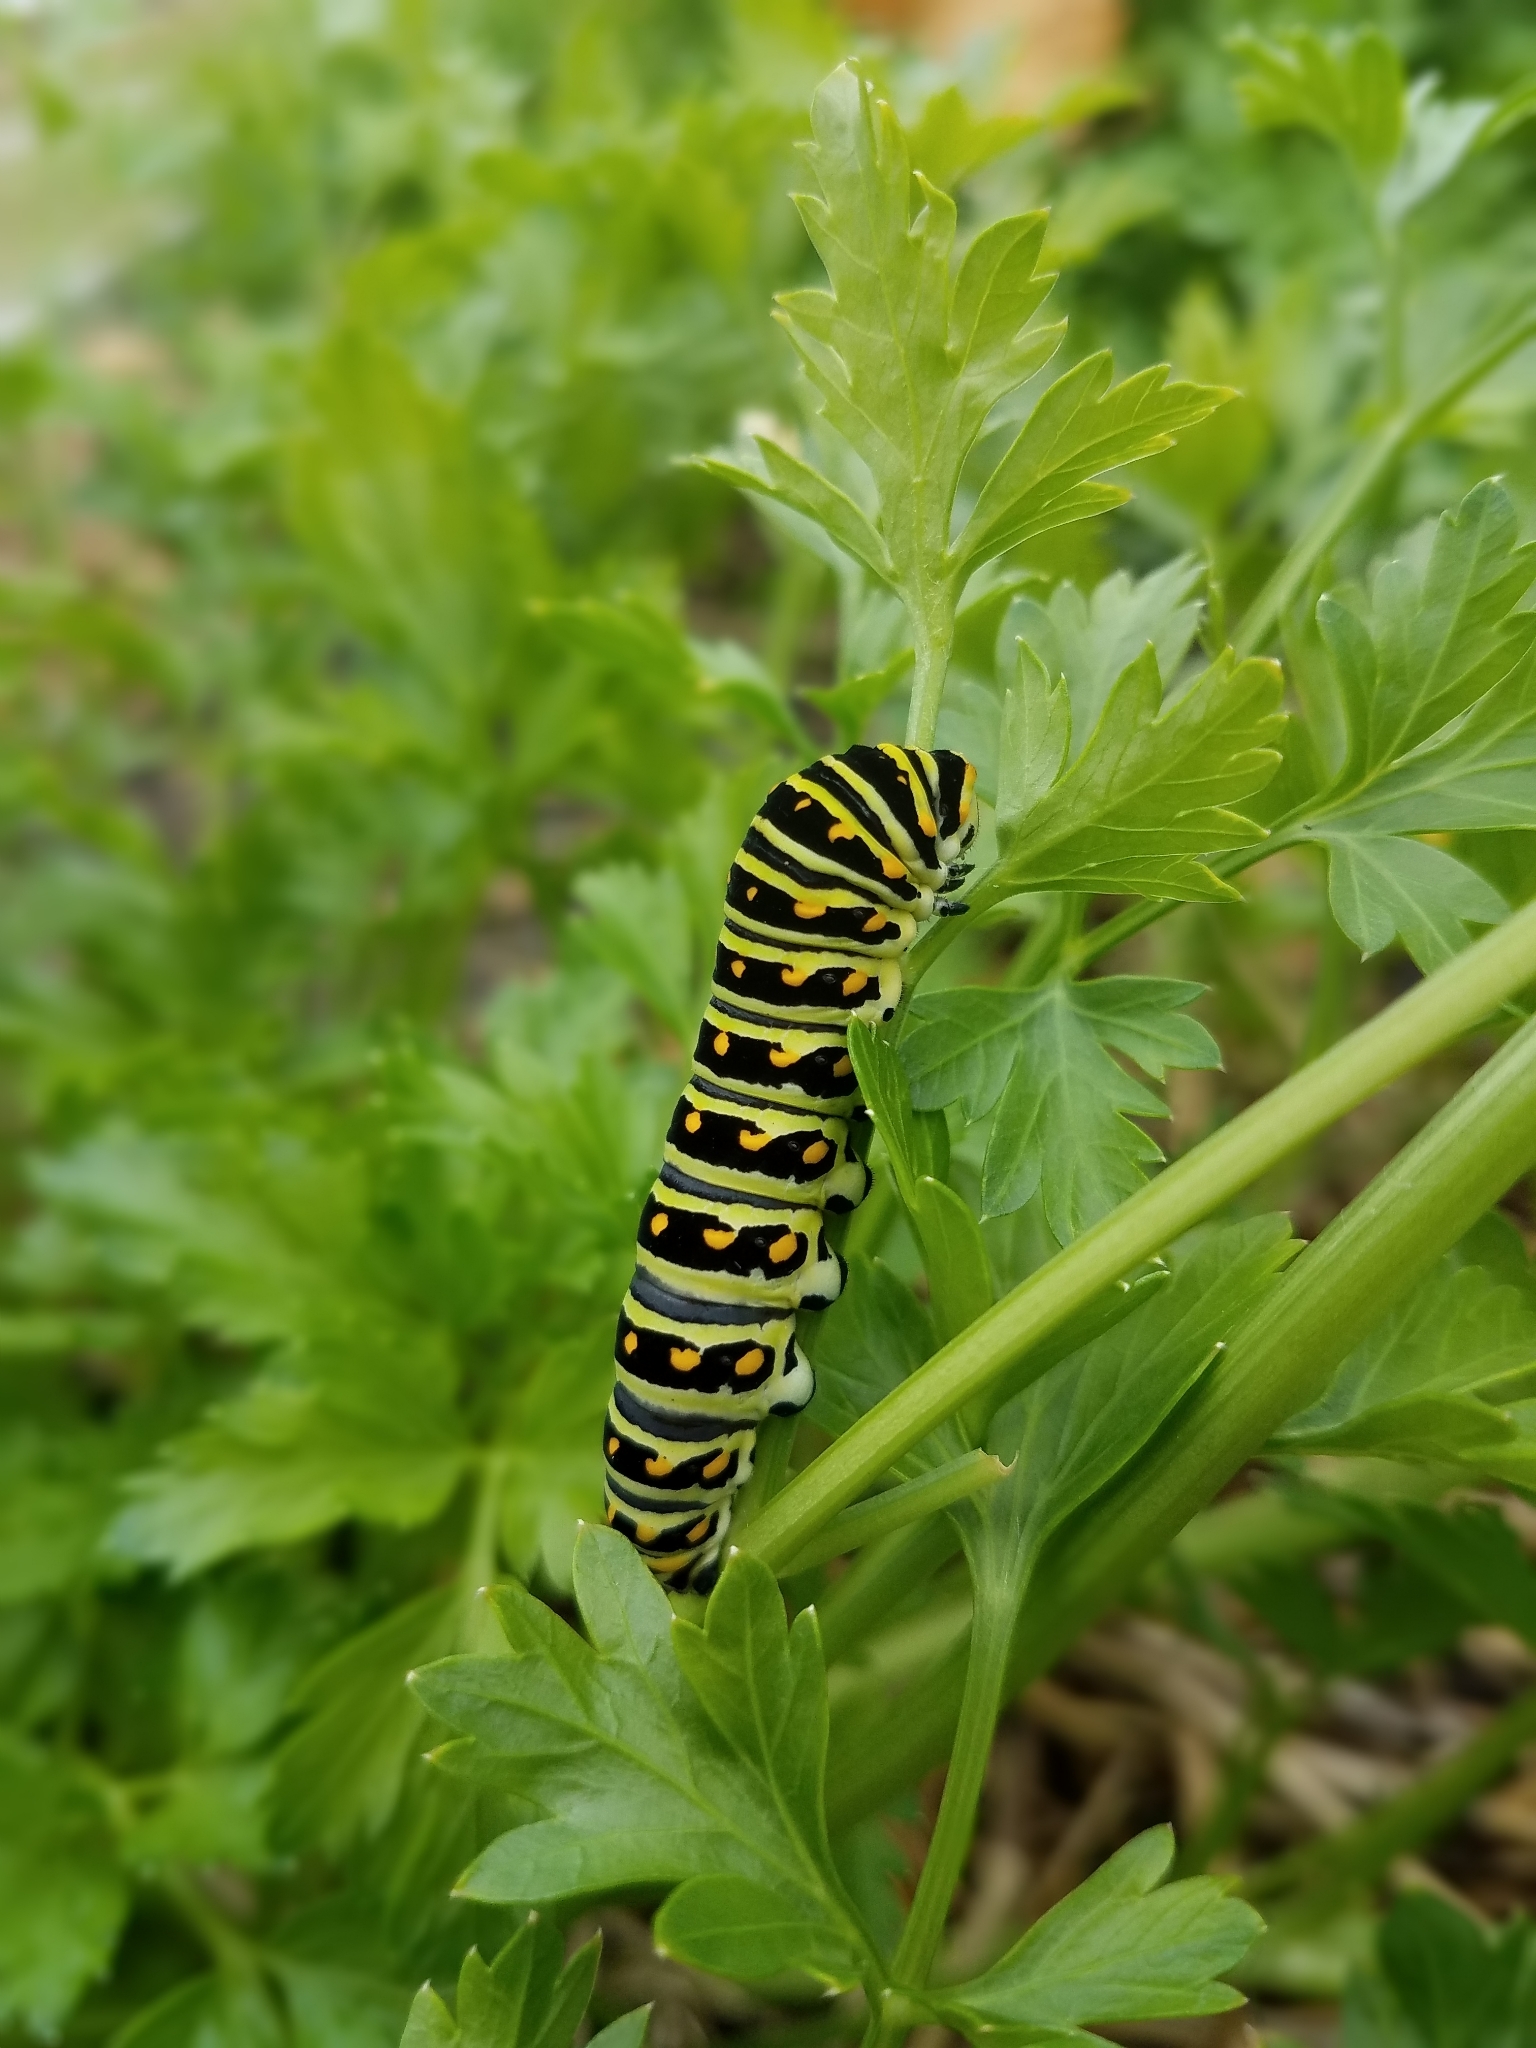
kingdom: Animalia
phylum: Arthropoda
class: Insecta
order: Lepidoptera
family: Papilionidae
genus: Papilio
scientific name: Papilio polyxenes
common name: Black swallowtail
